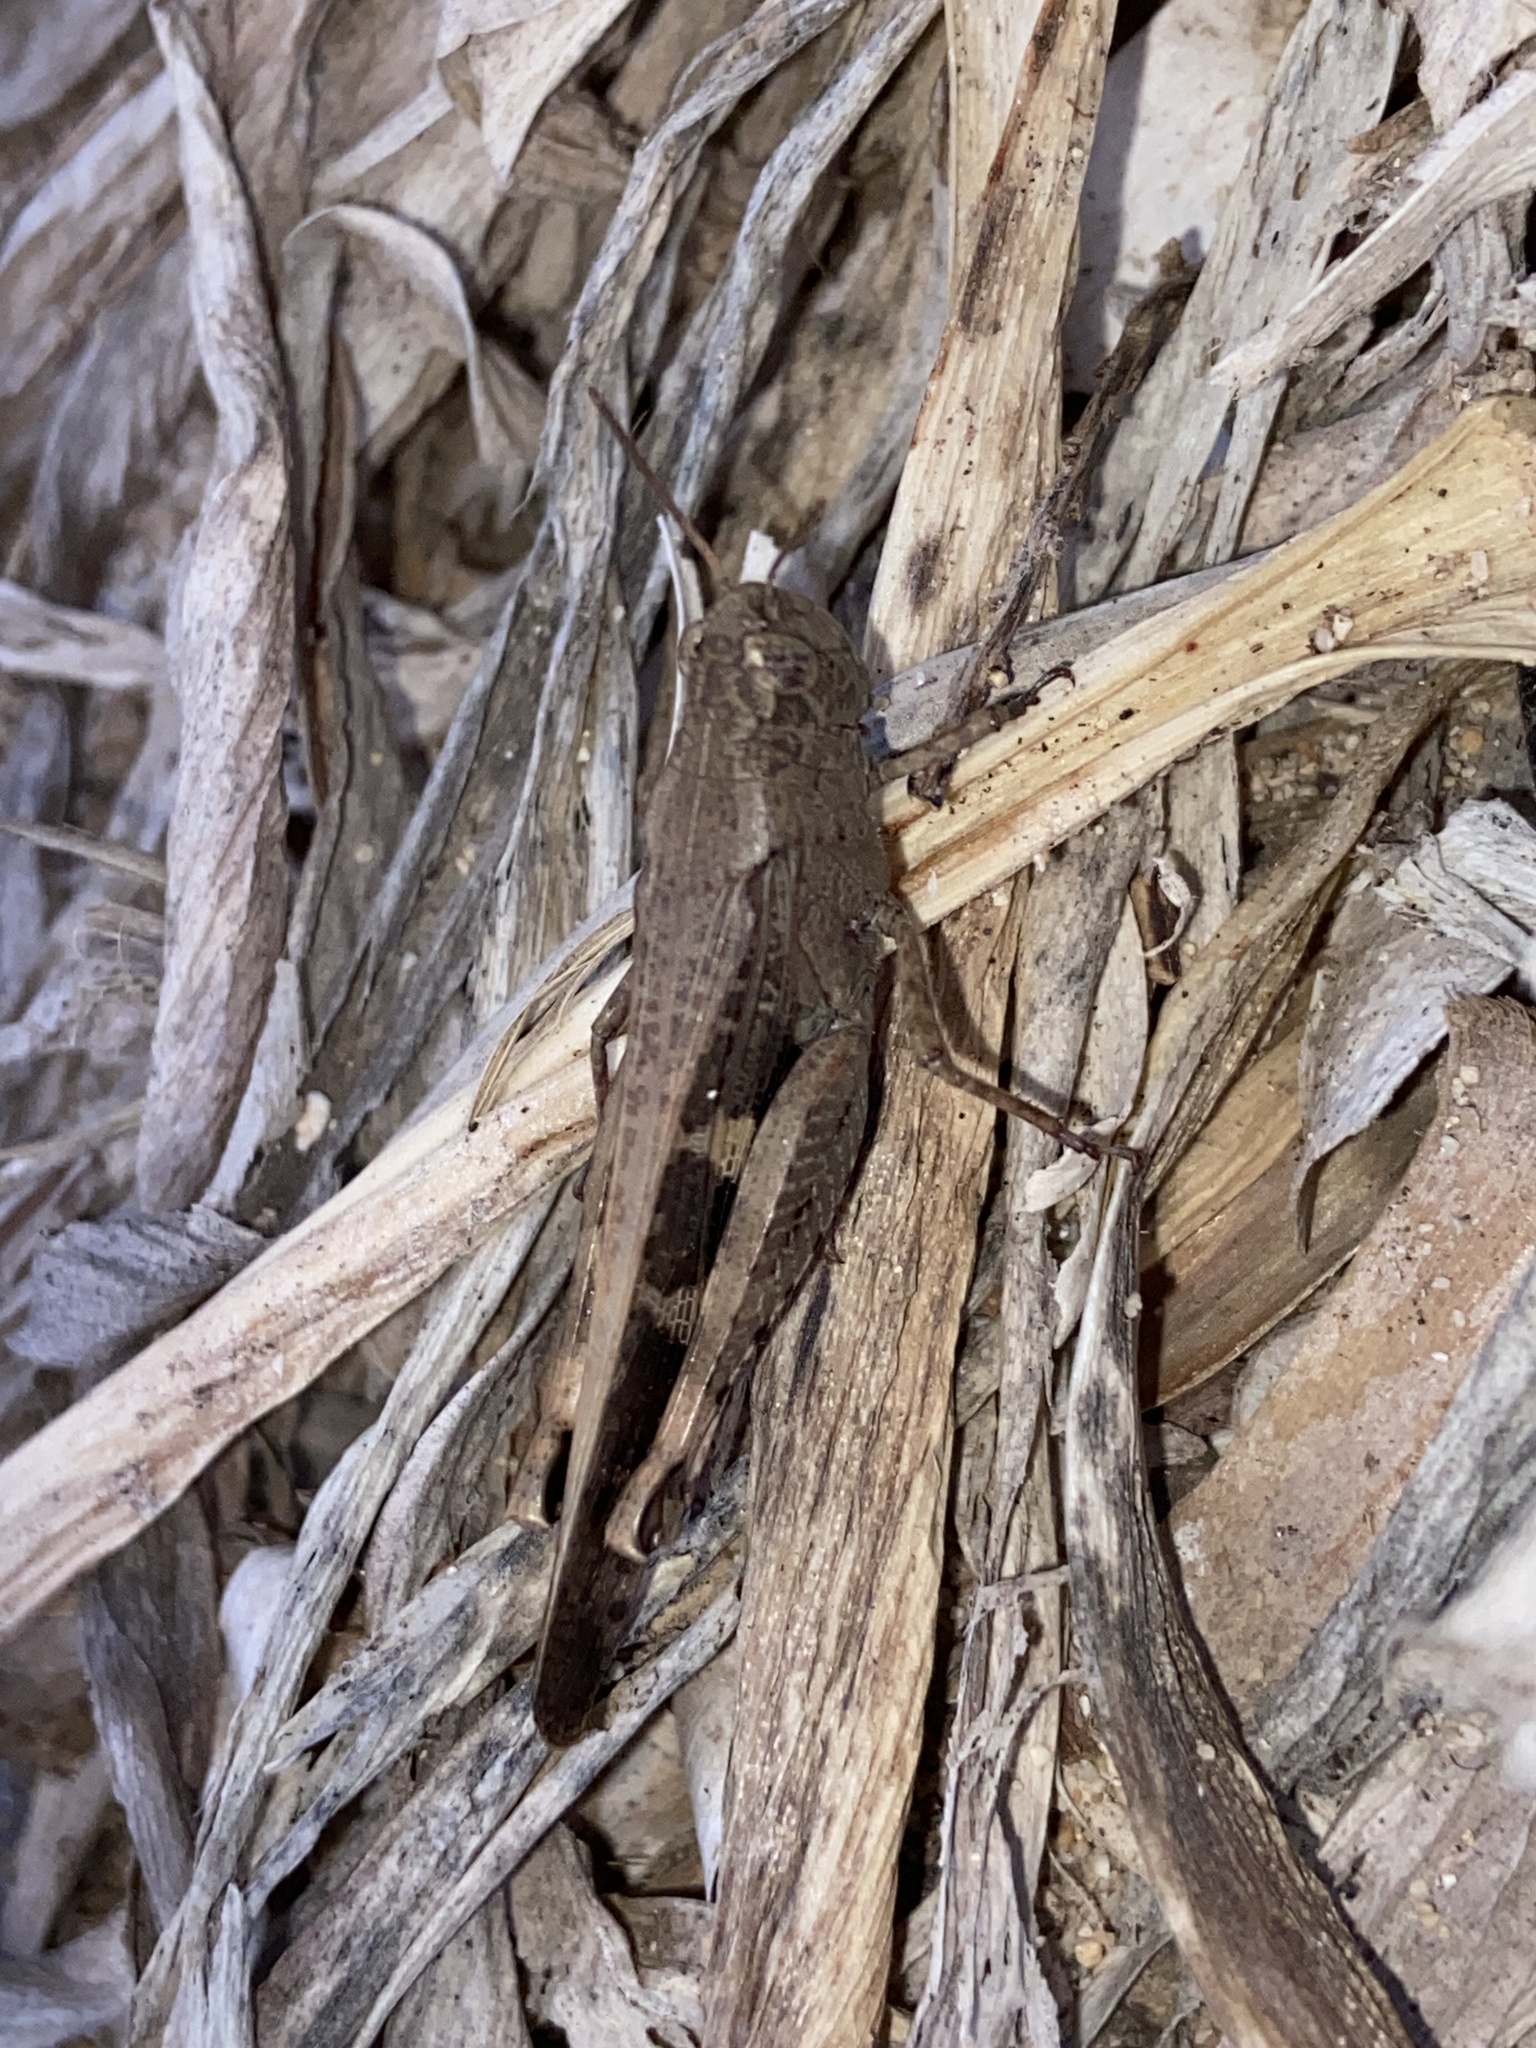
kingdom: Animalia
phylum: Arthropoda
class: Insecta
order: Orthoptera
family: Acrididae
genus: Aiolopus
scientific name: Aiolopus strepens
